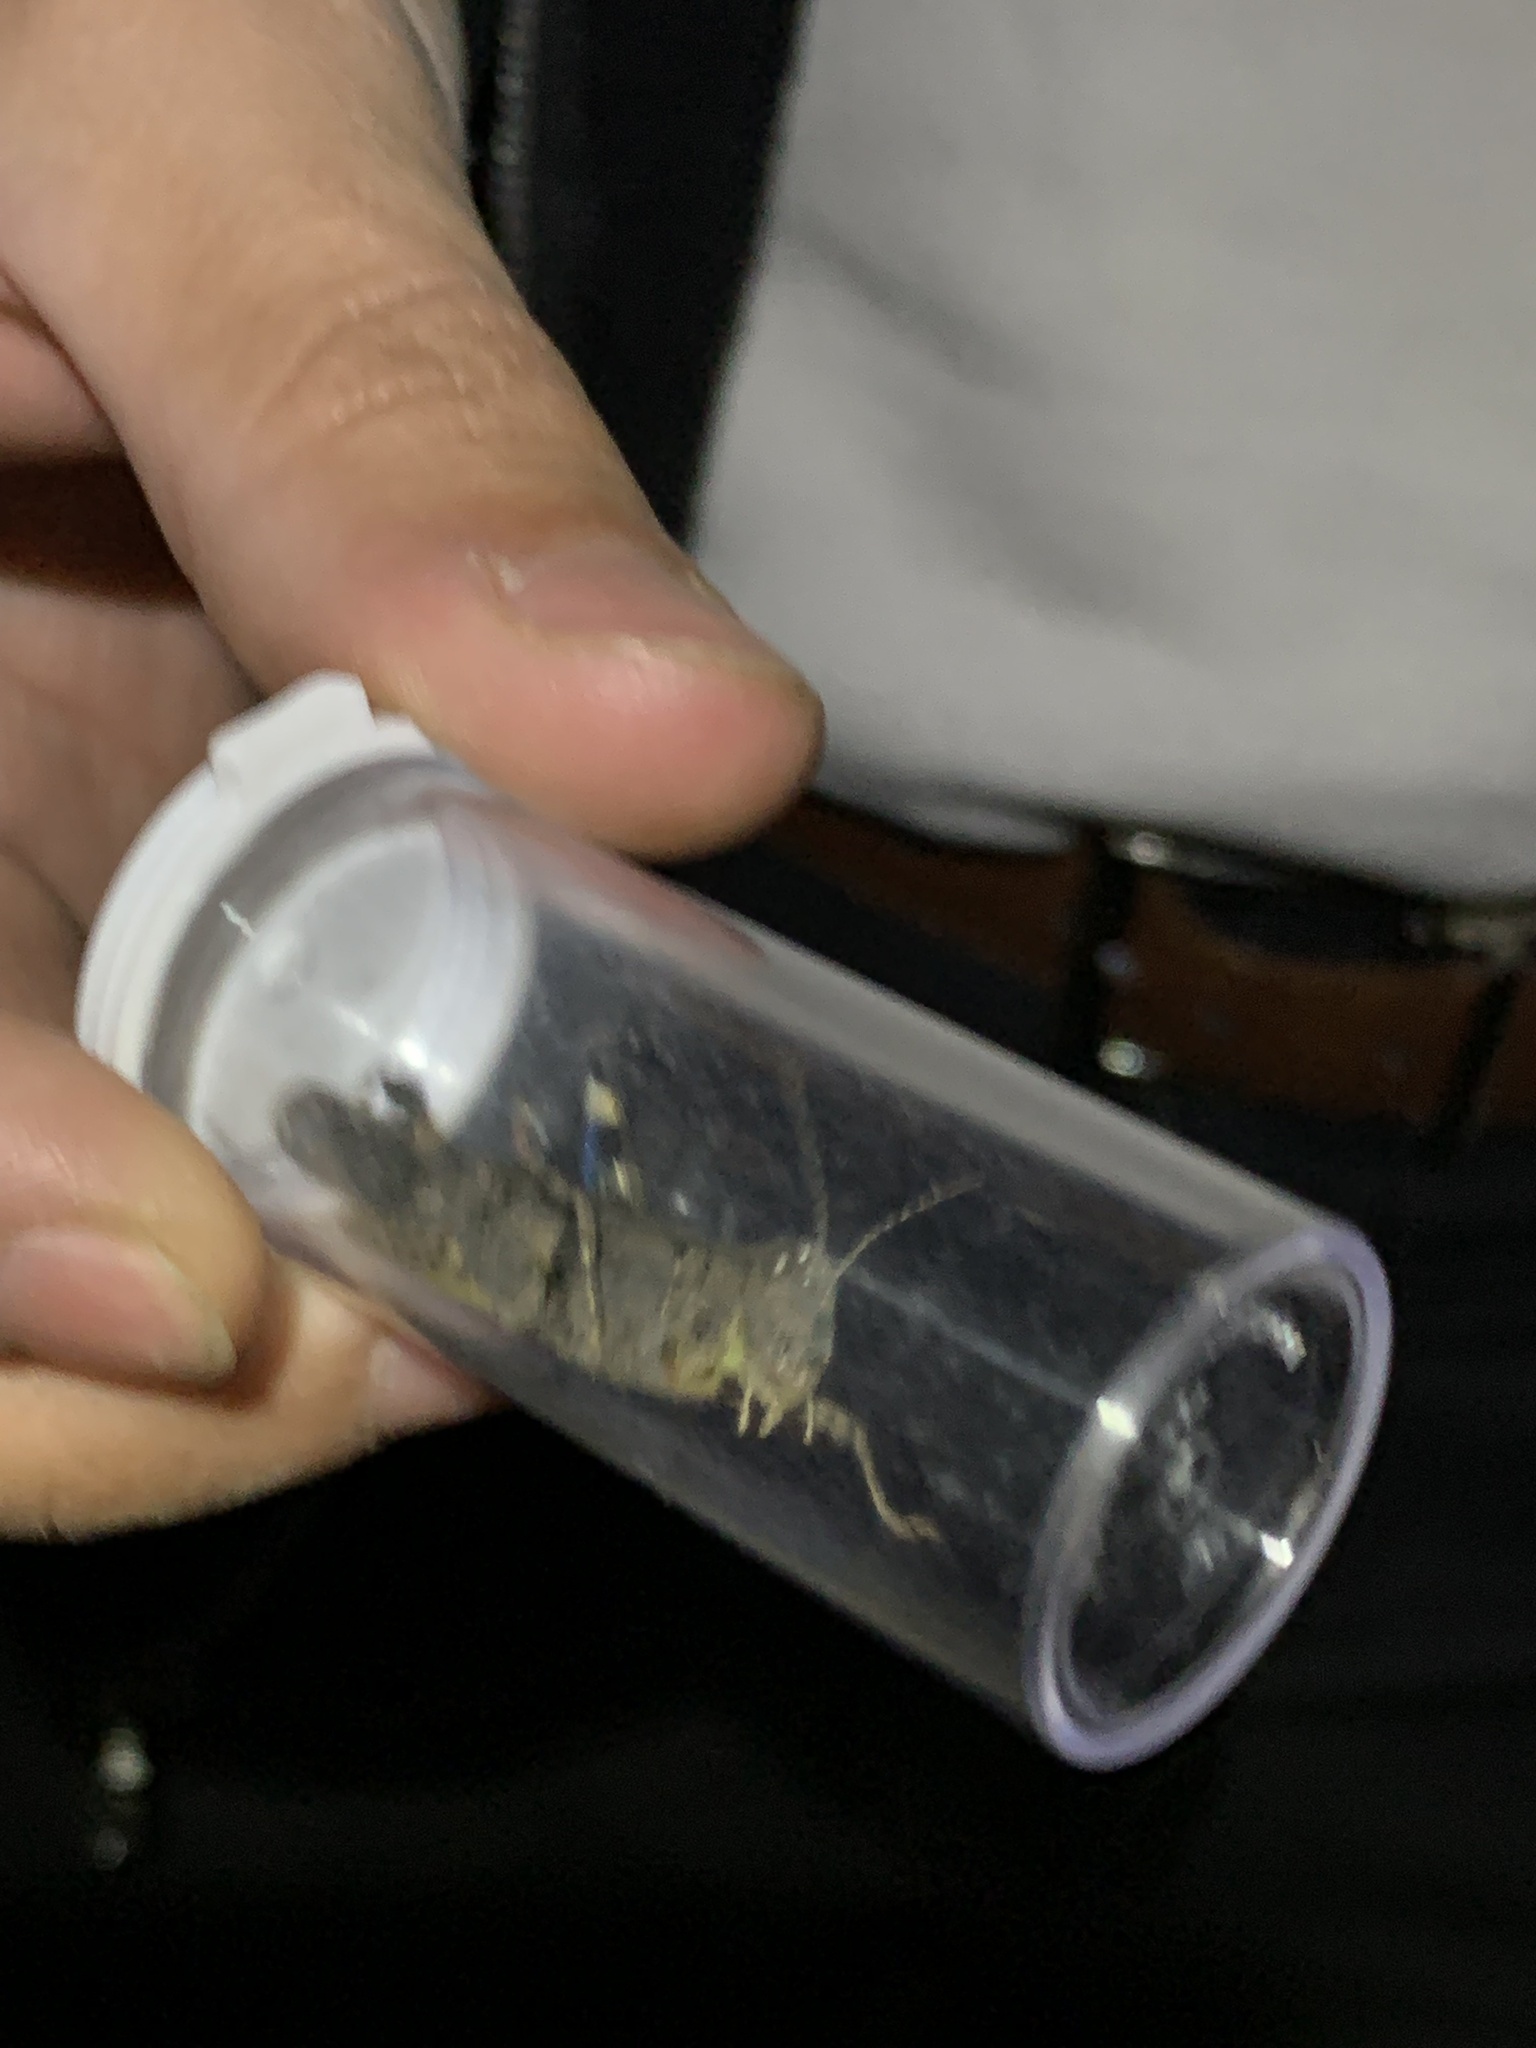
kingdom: Animalia
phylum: Arthropoda
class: Insecta
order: Orthoptera
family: Acrididae
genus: Trimerotropis
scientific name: Trimerotropis fontana
